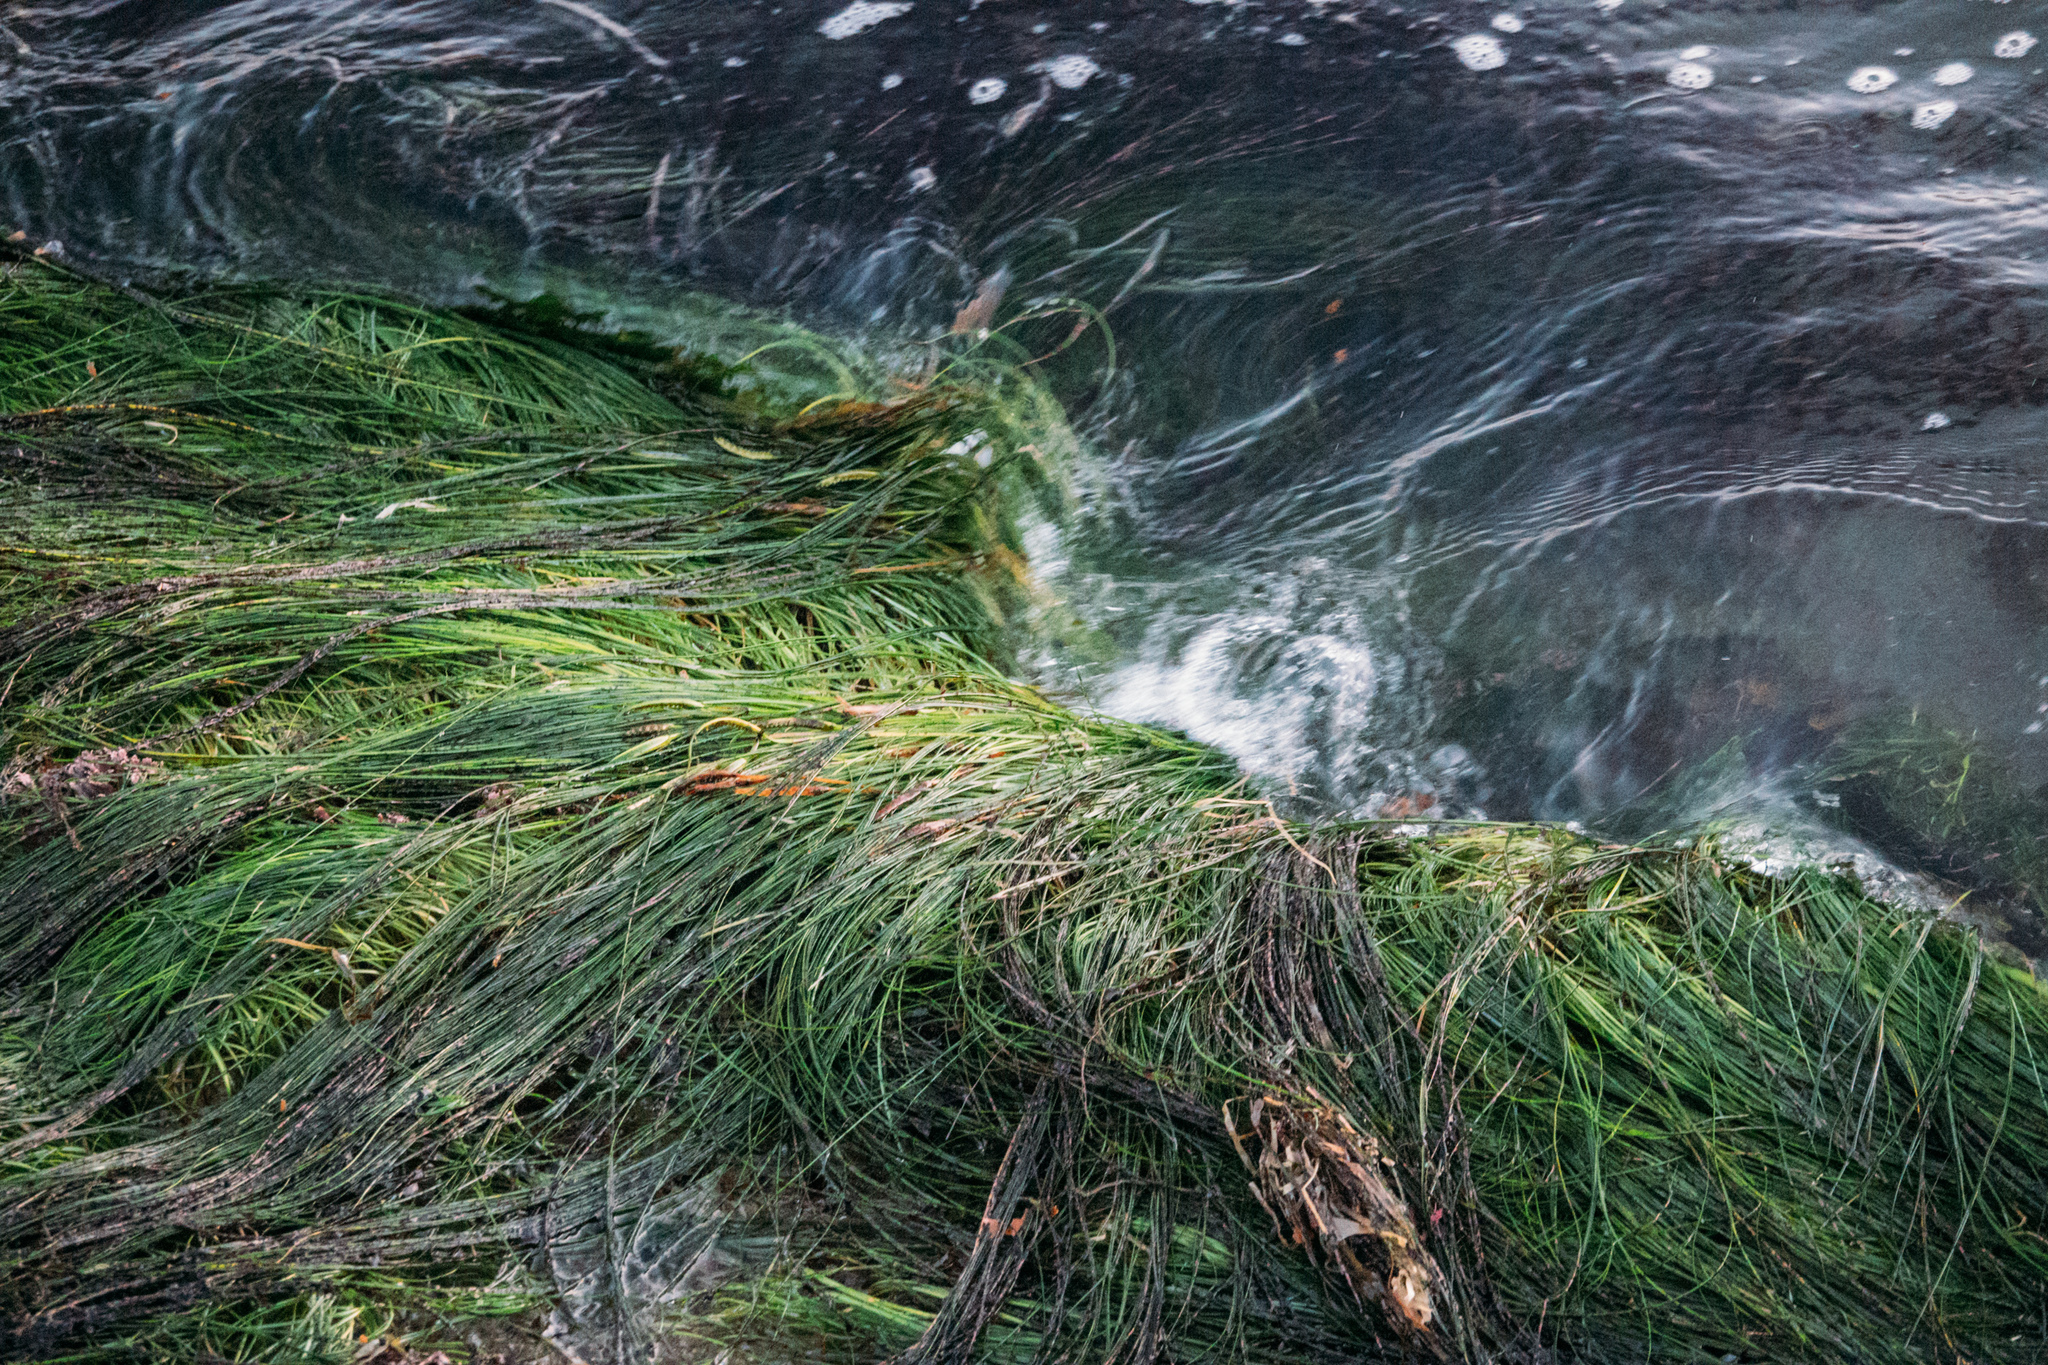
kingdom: Plantae
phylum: Tracheophyta
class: Liliopsida
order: Alismatales
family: Zosteraceae
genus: Phyllospadix
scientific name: Phyllospadix torreyi
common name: Surfgrass
